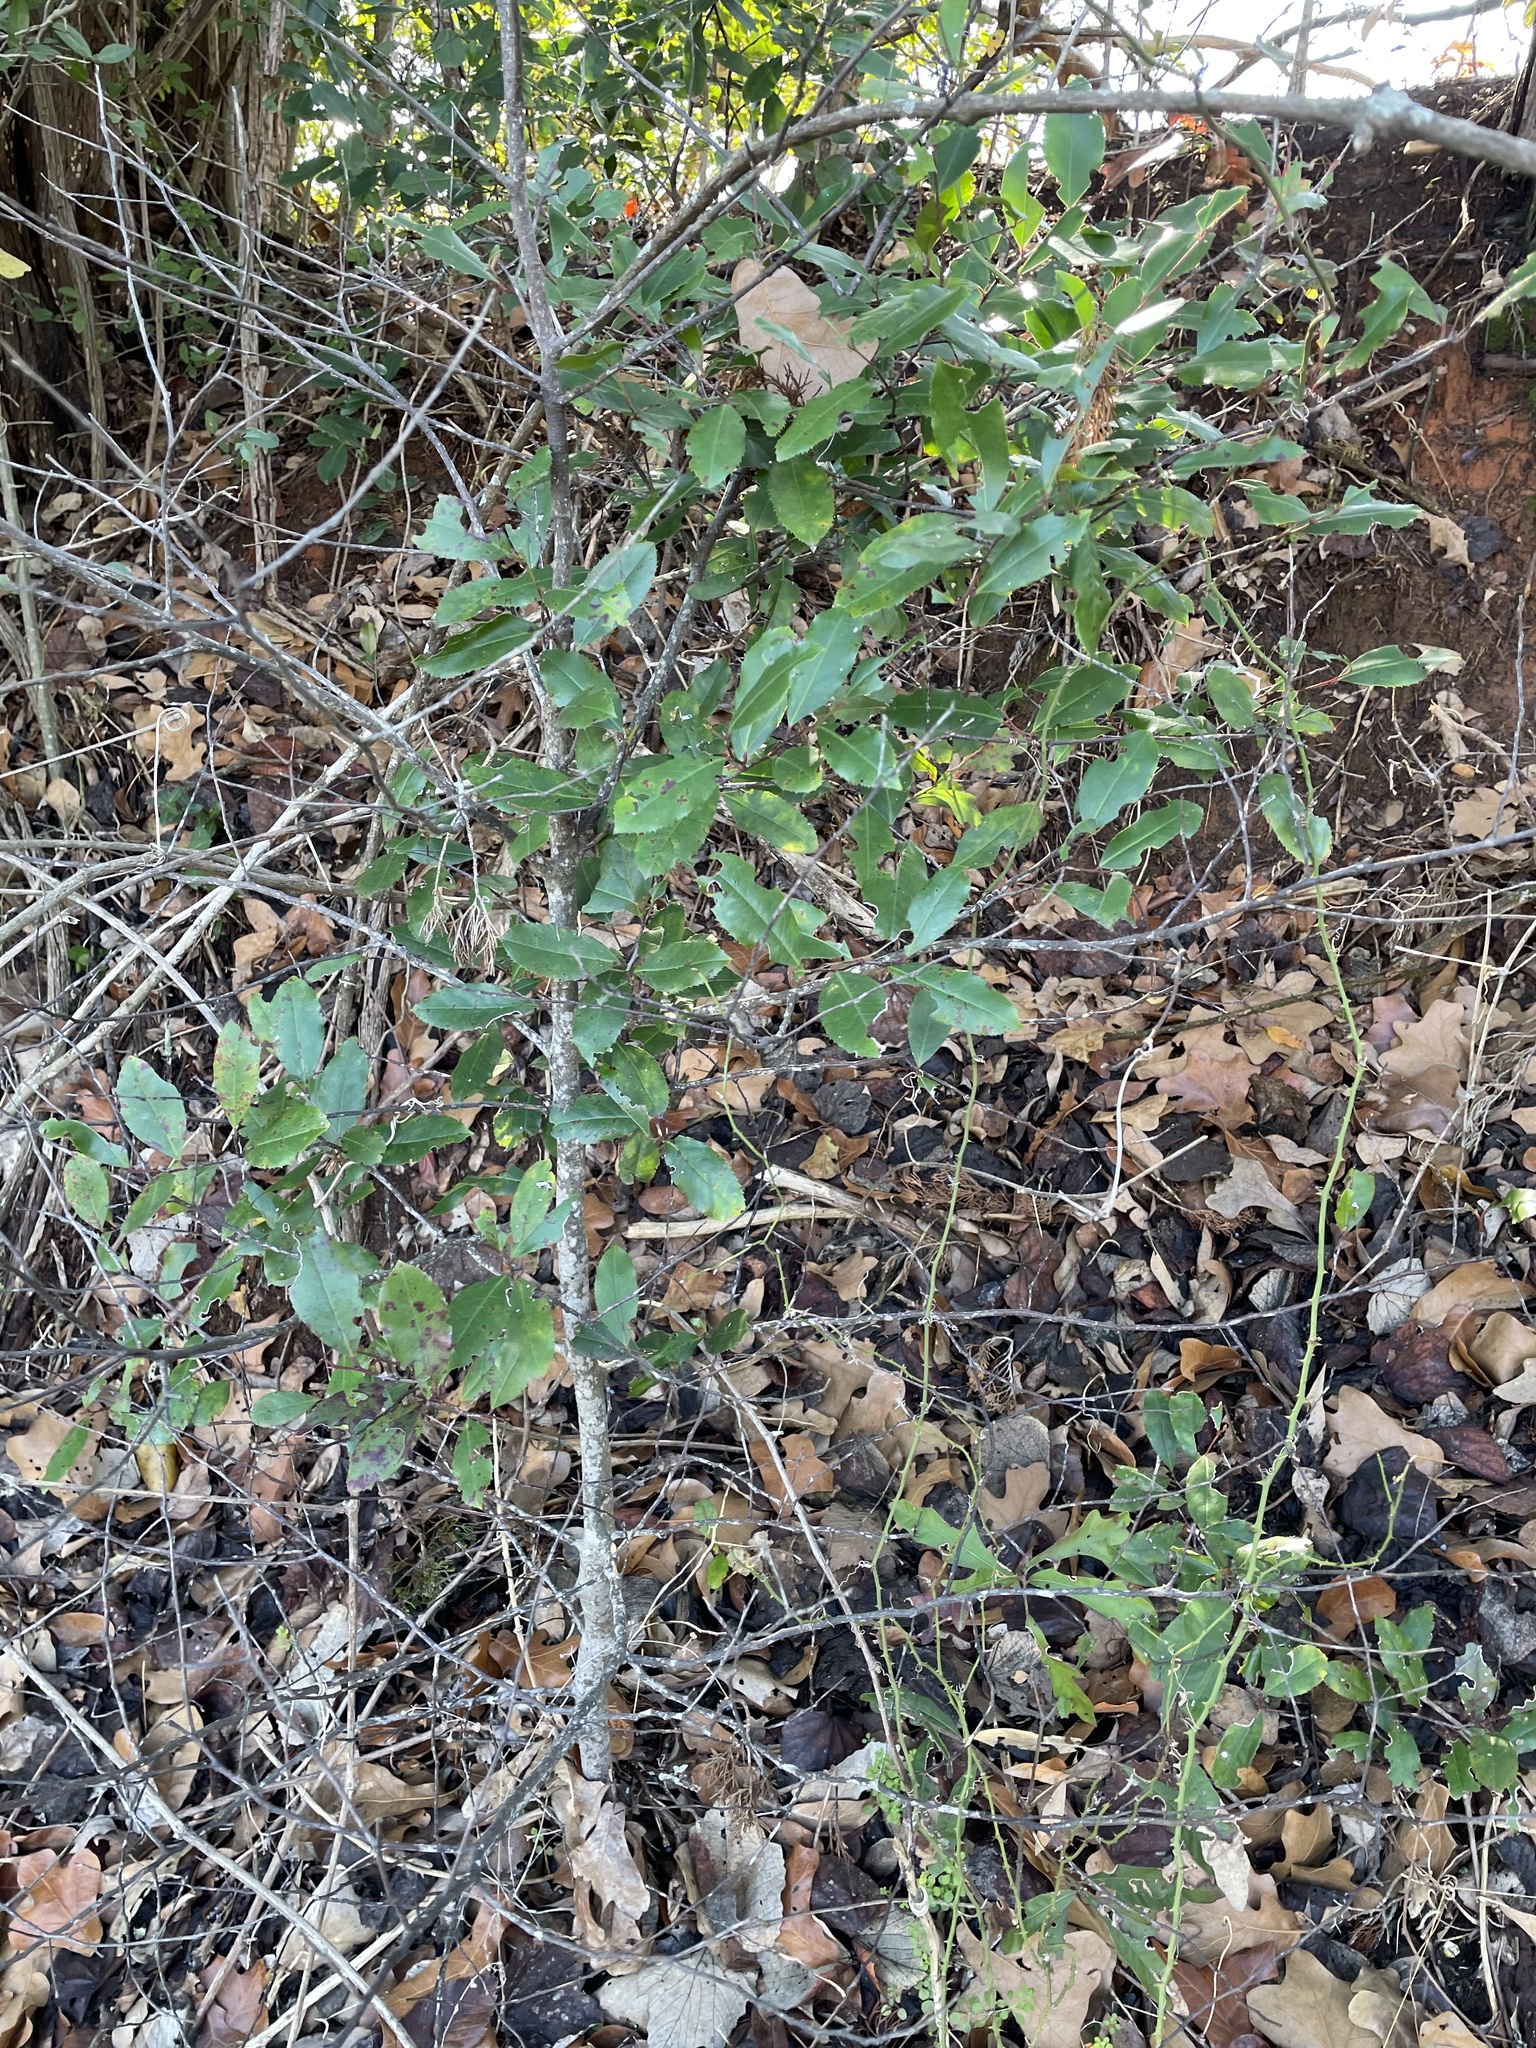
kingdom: Plantae
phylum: Tracheophyta
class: Magnoliopsida
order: Rosales
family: Rosaceae
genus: Prunus
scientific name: Prunus caroliniana
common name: Carolina laurel cherry
